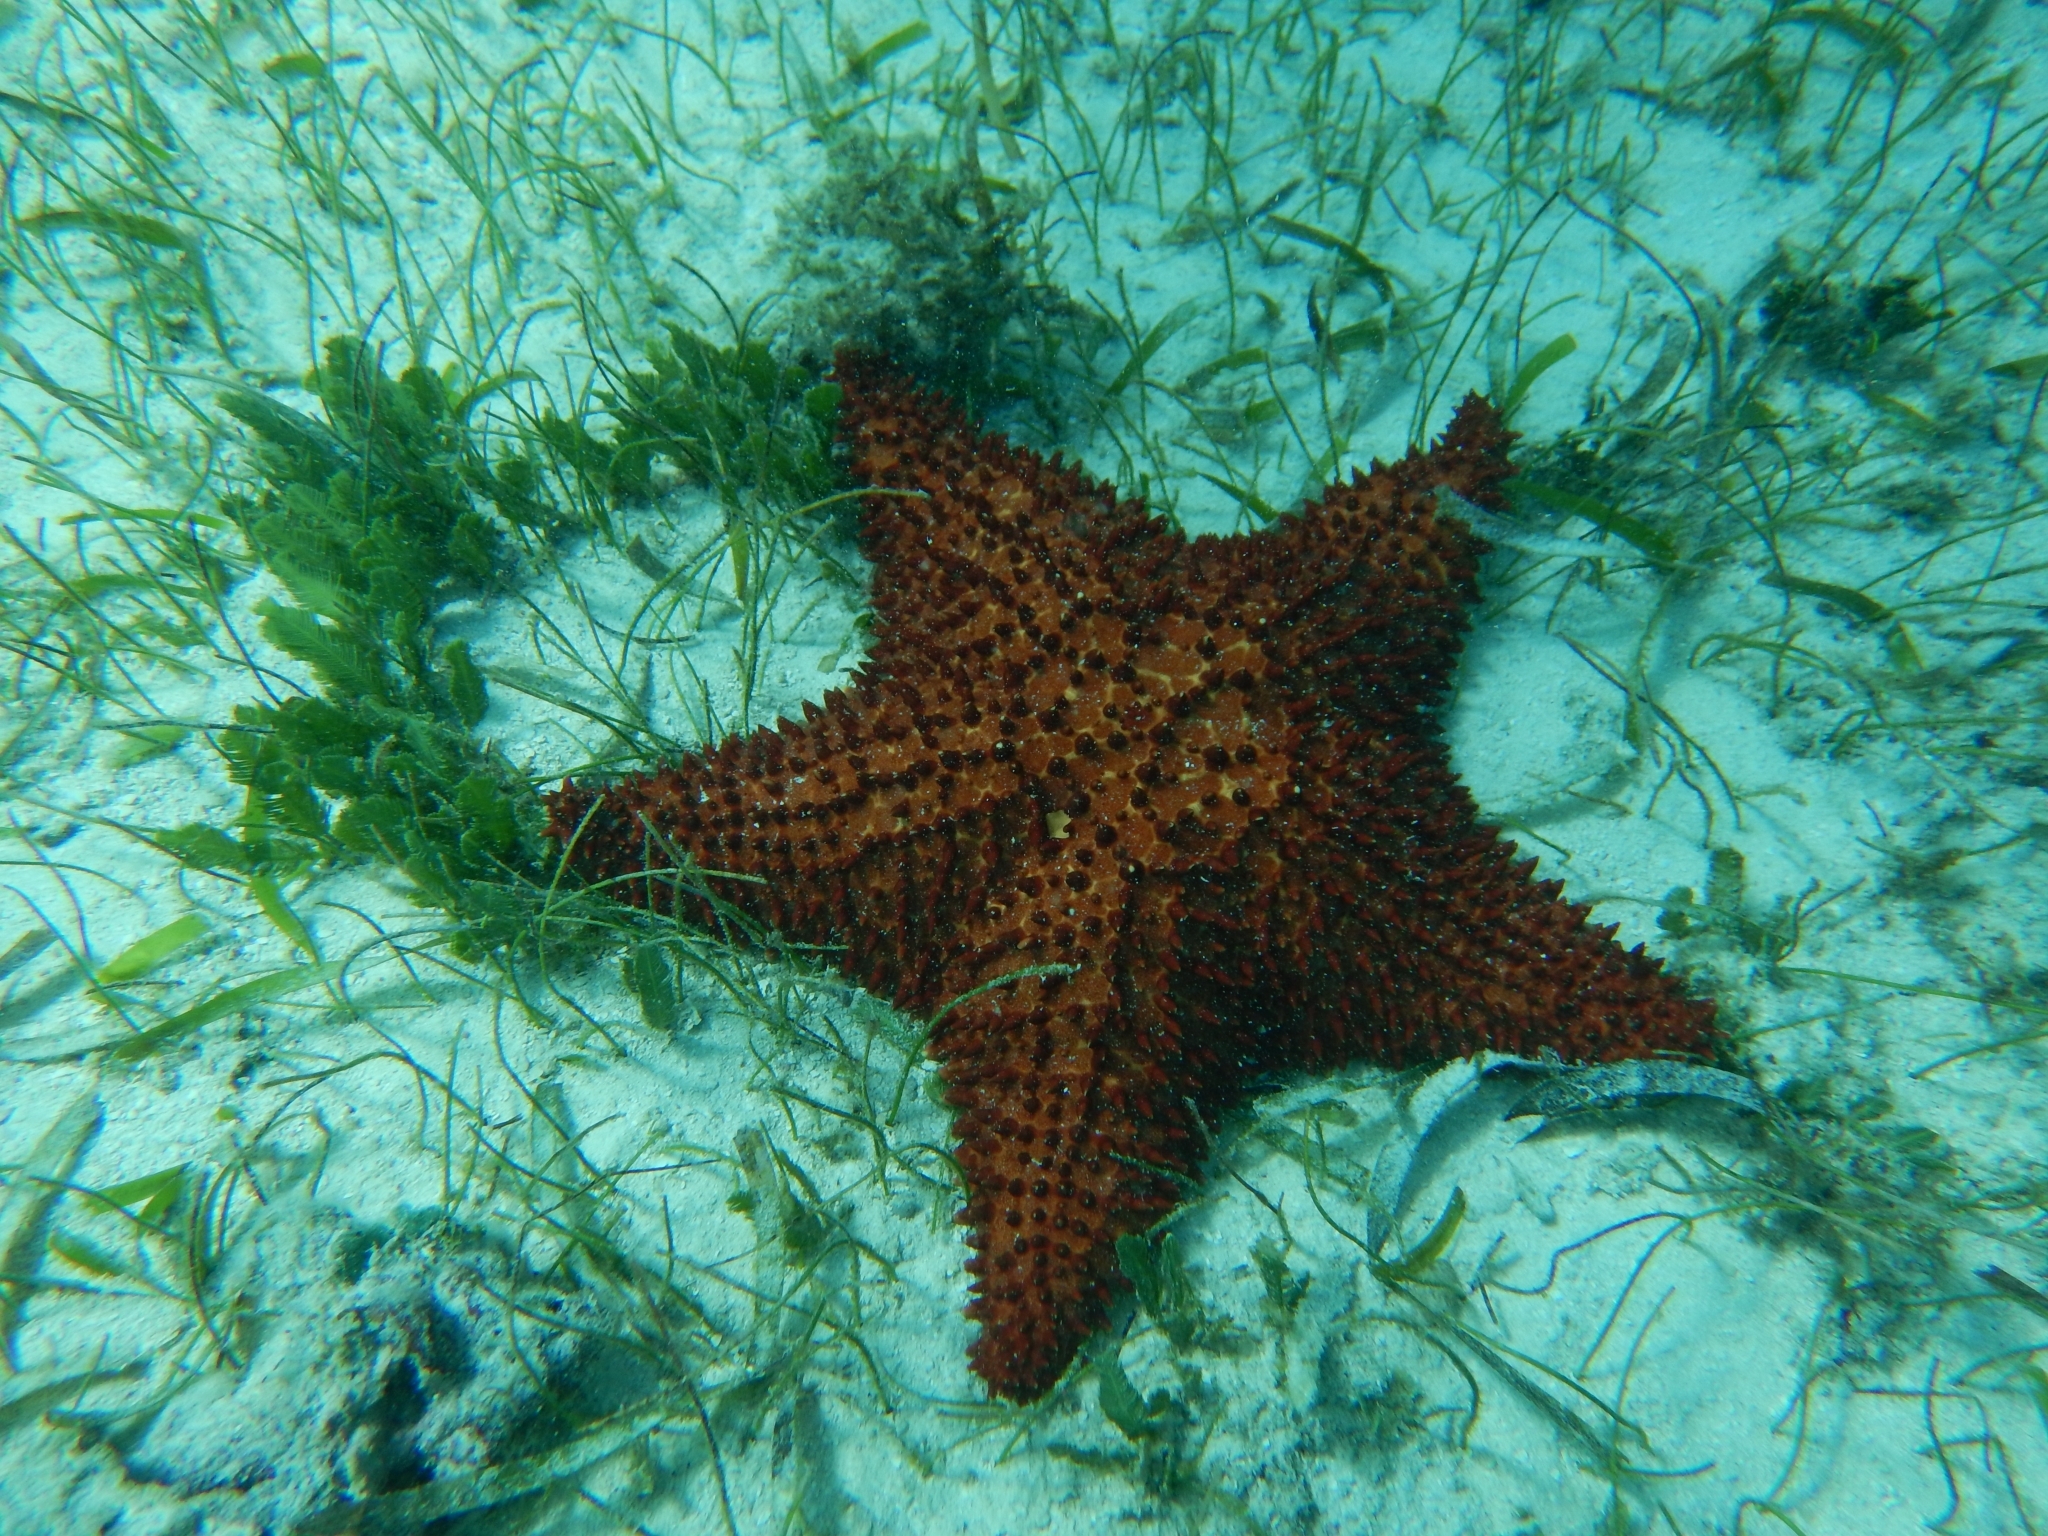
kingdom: Animalia
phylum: Echinodermata
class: Asteroidea
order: Valvatida
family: Oreasteridae
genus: Oreaster
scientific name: Oreaster reticulatus
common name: Cushion sea star
